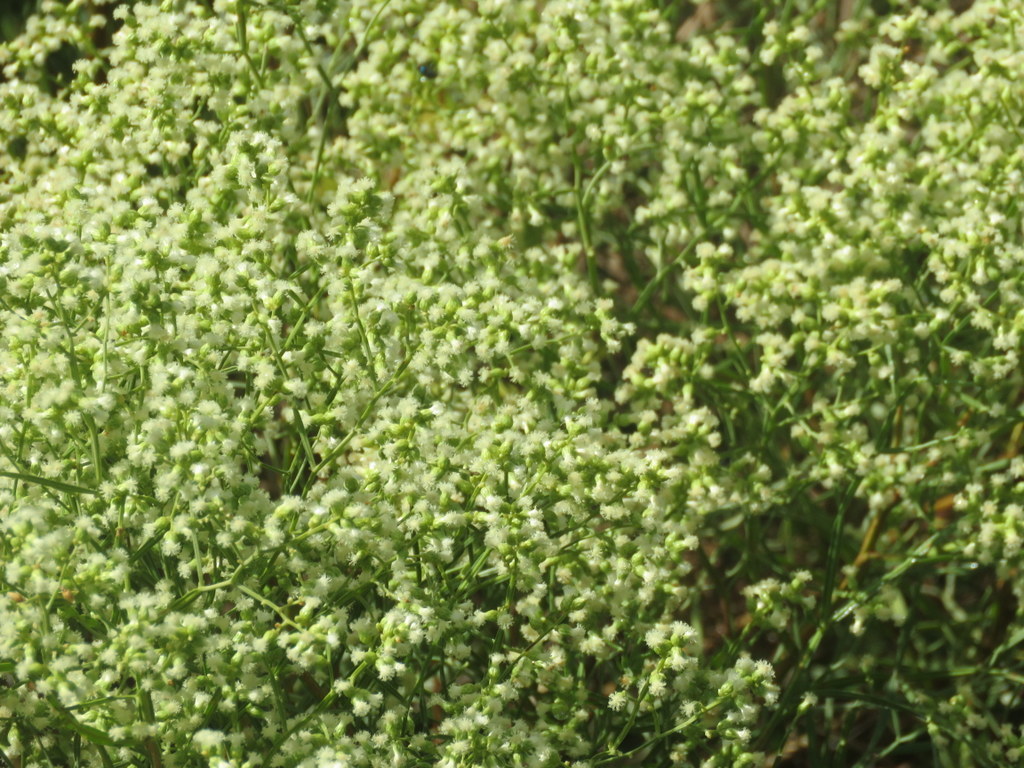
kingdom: Plantae
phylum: Tracheophyta
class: Magnoliopsida
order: Asterales
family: Asteraceae
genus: Baccharis
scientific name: Baccharis articulata
